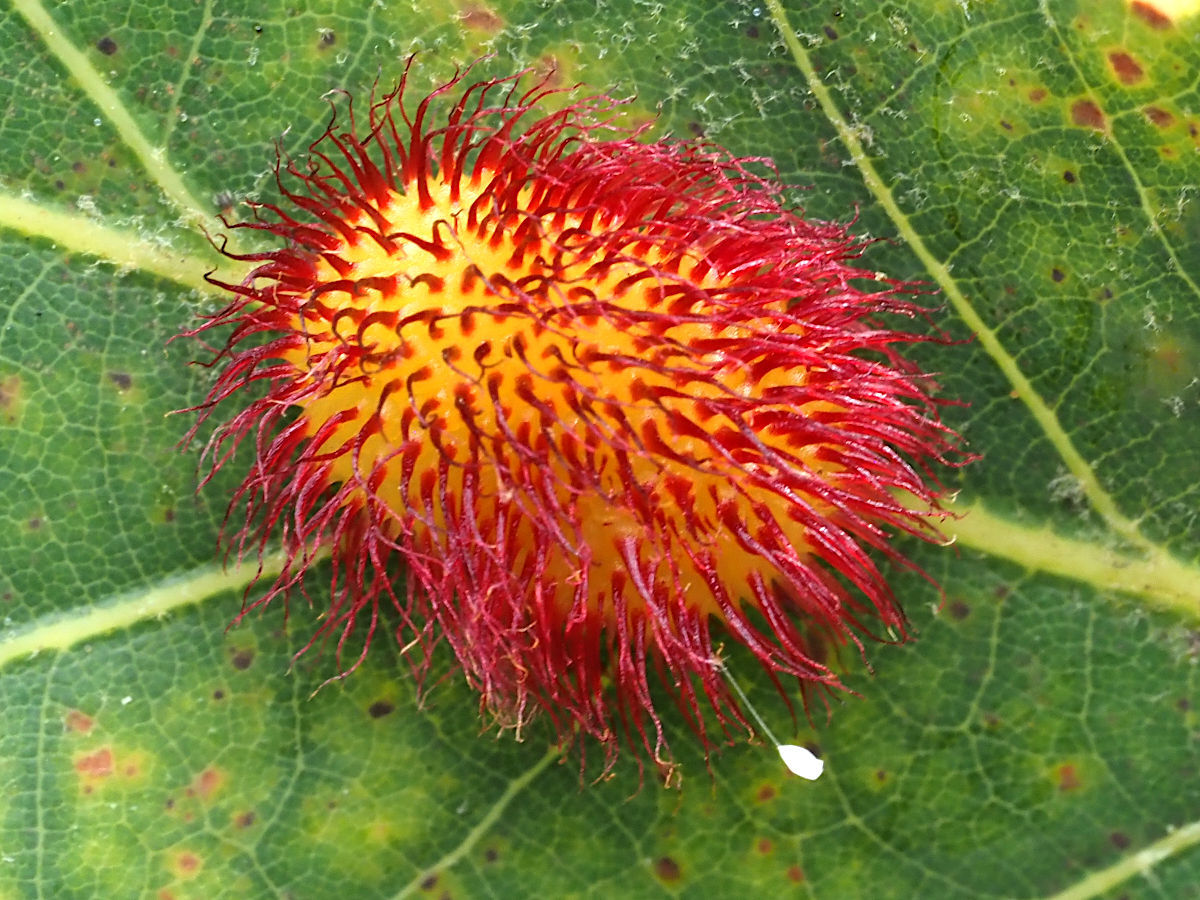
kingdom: Animalia
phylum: Arthropoda
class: Insecta
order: Hymenoptera
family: Cynipidae
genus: Acraspis
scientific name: Acraspis erinacei
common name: Hedgehog gall wasp
